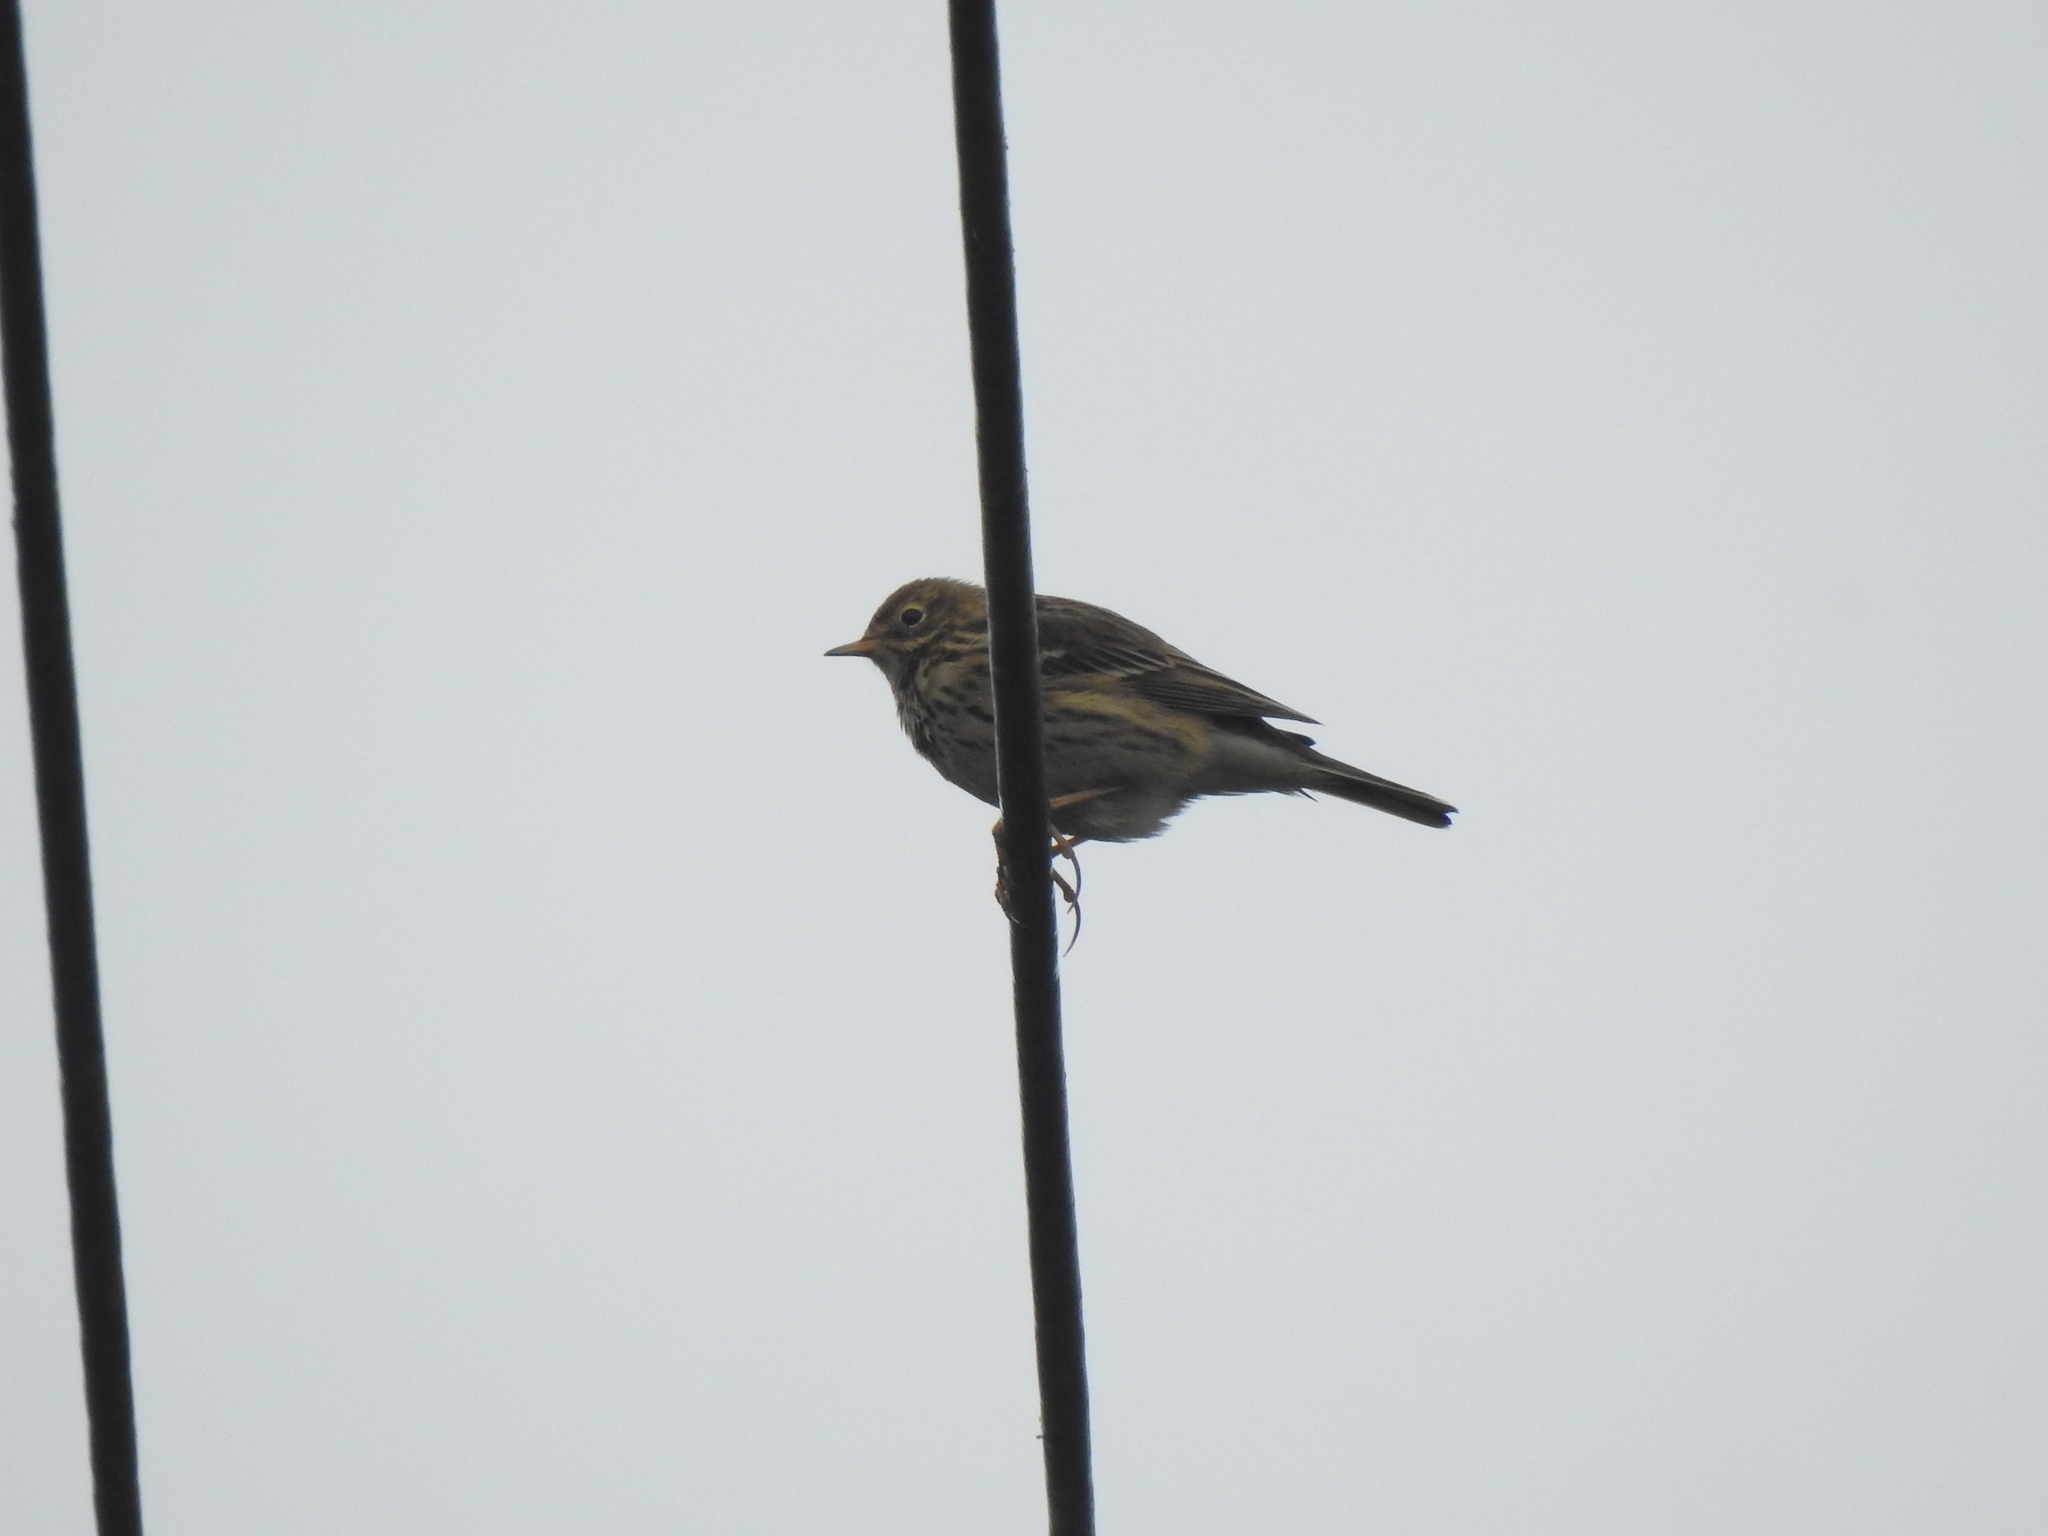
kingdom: Animalia
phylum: Chordata
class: Aves
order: Passeriformes
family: Motacillidae
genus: Anthus
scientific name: Anthus pratensis
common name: Meadow pipit
